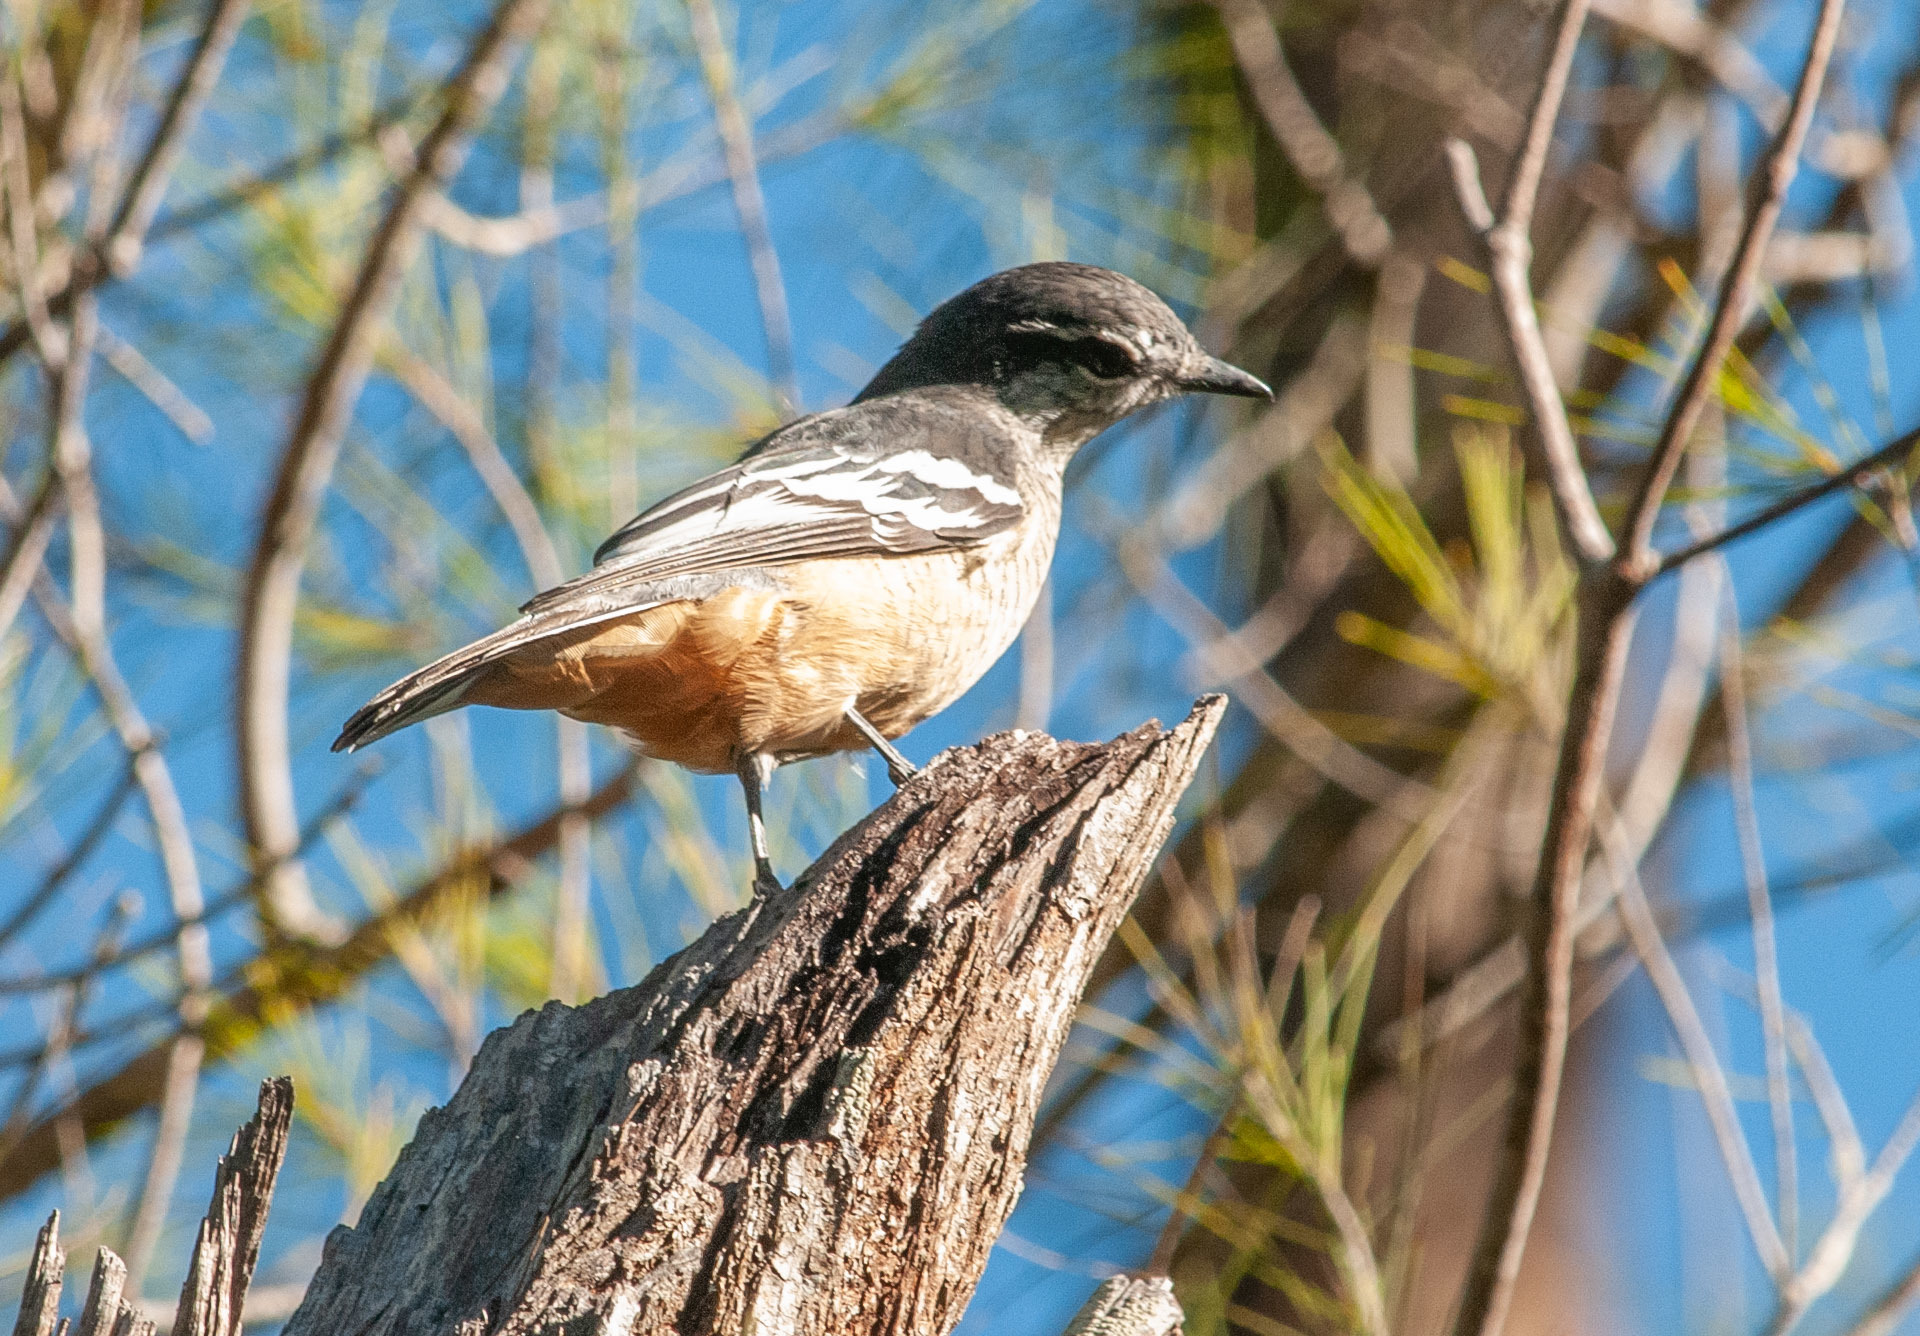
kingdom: Animalia
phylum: Chordata
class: Aves
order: Passeriformes
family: Campephagidae
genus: Lalage
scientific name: Lalage leucomela
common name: Varied triller
